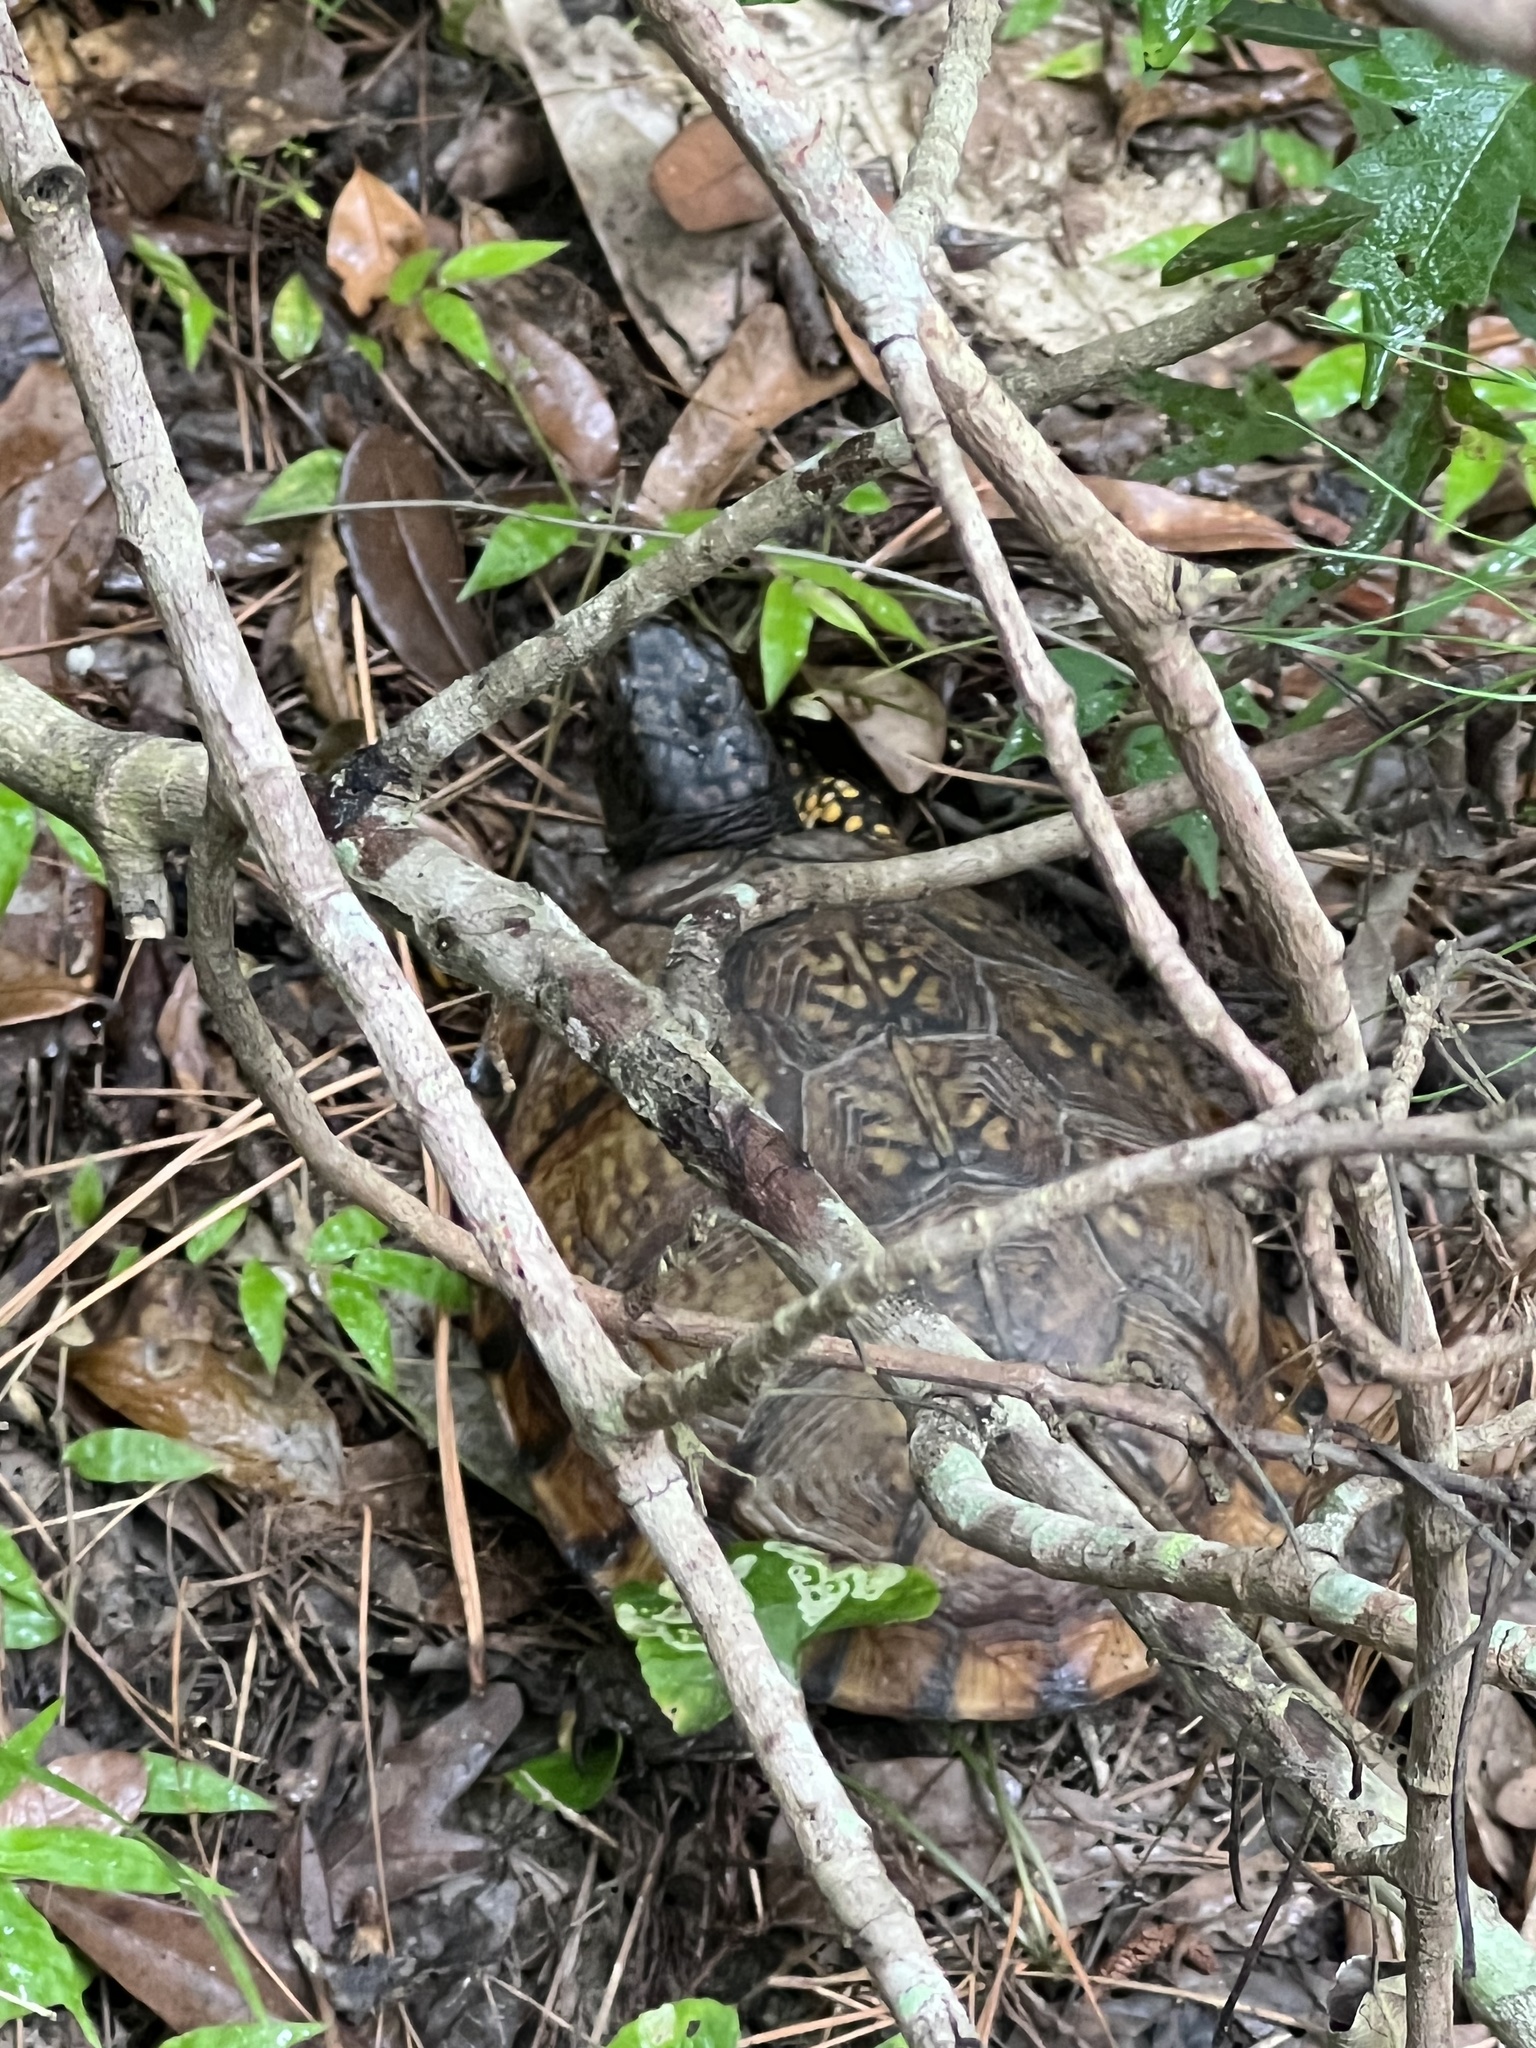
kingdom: Animalia
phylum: Chordata
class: Testudines
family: Emydidae
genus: Terrapene
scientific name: Terrapene carolina
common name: Common box turtle
